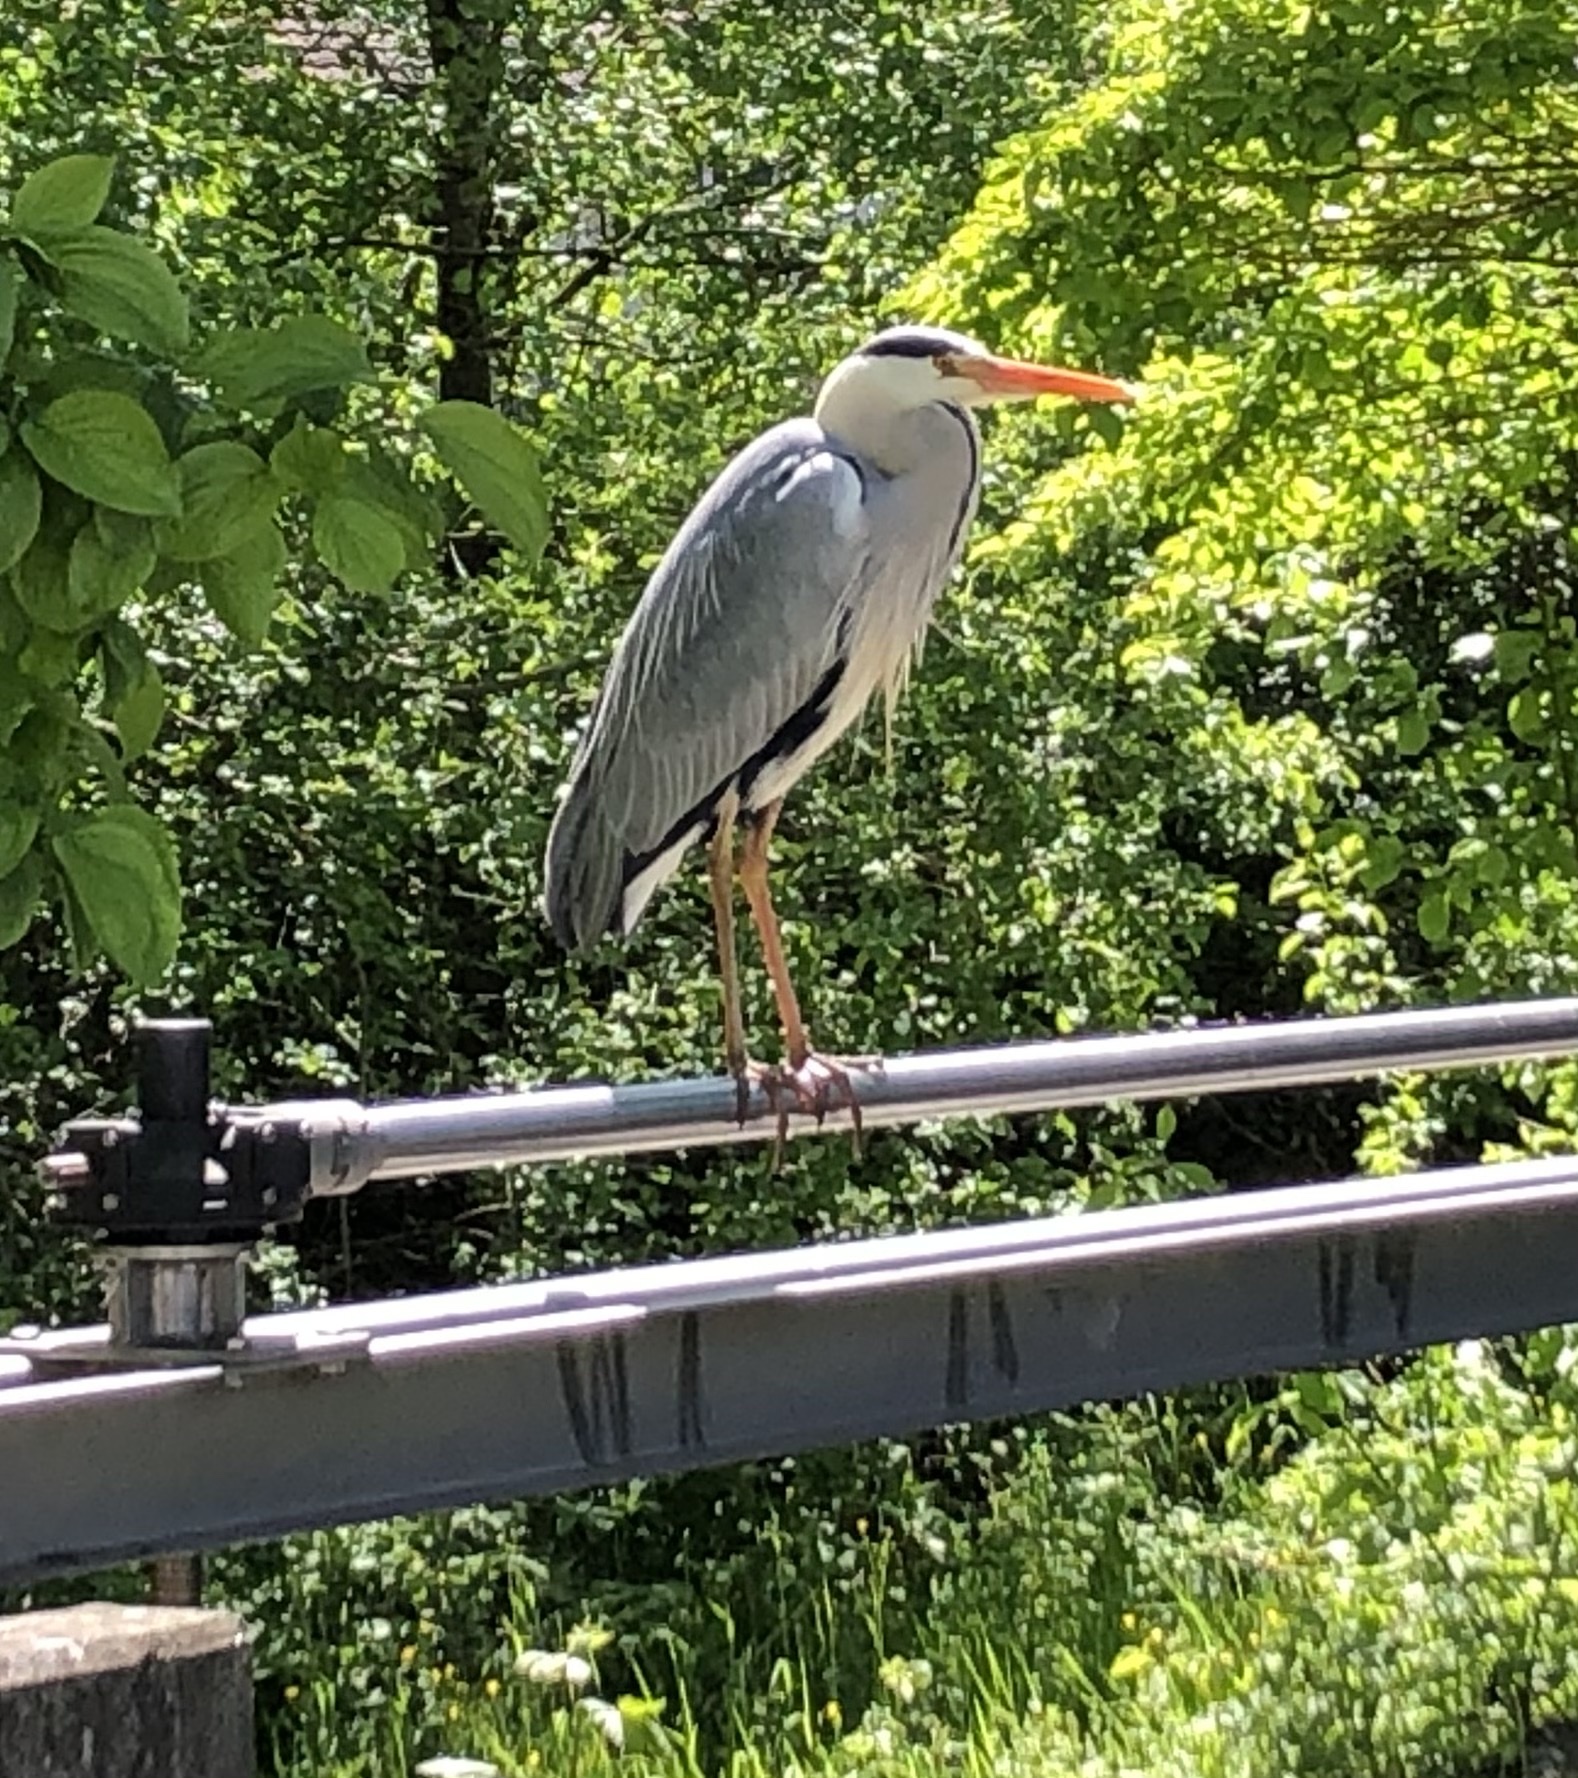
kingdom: Animalia
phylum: Chordata
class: Aves
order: Pelecaniformes
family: Ardeidae
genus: Ardea
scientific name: Ardea cinerea
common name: Grey heron
